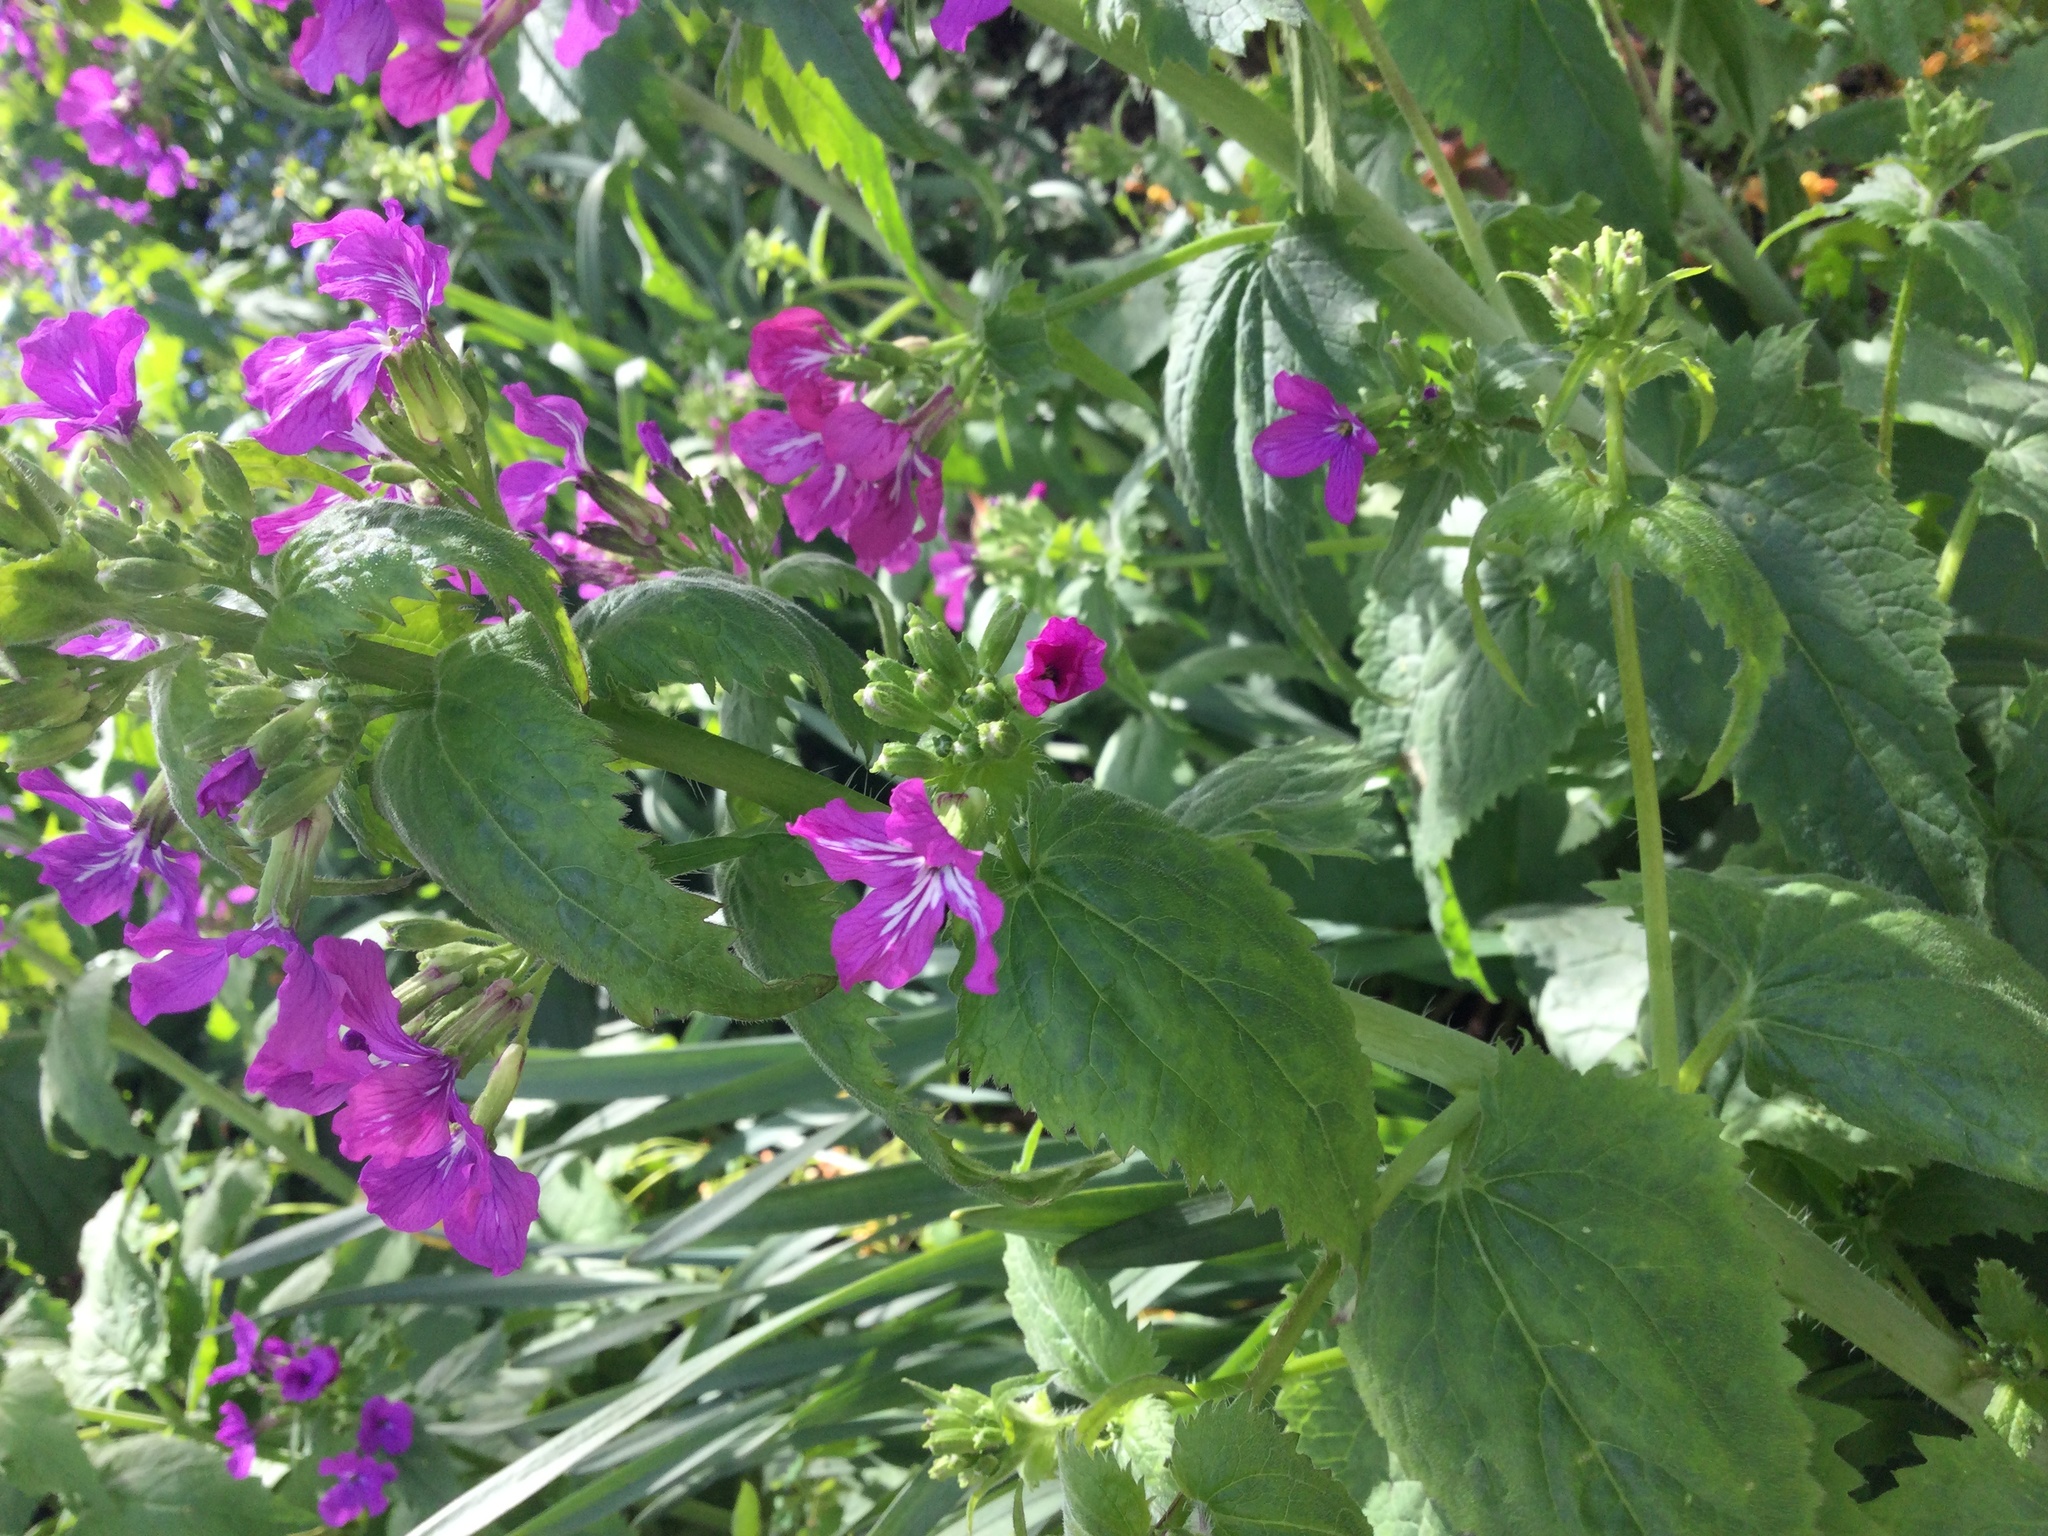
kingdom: Plantae
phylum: Tracheophyta
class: Magnoliopsida
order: Brassicales
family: Brassicaceae
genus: Lunaria
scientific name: Lunaria annua
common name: Honesty
